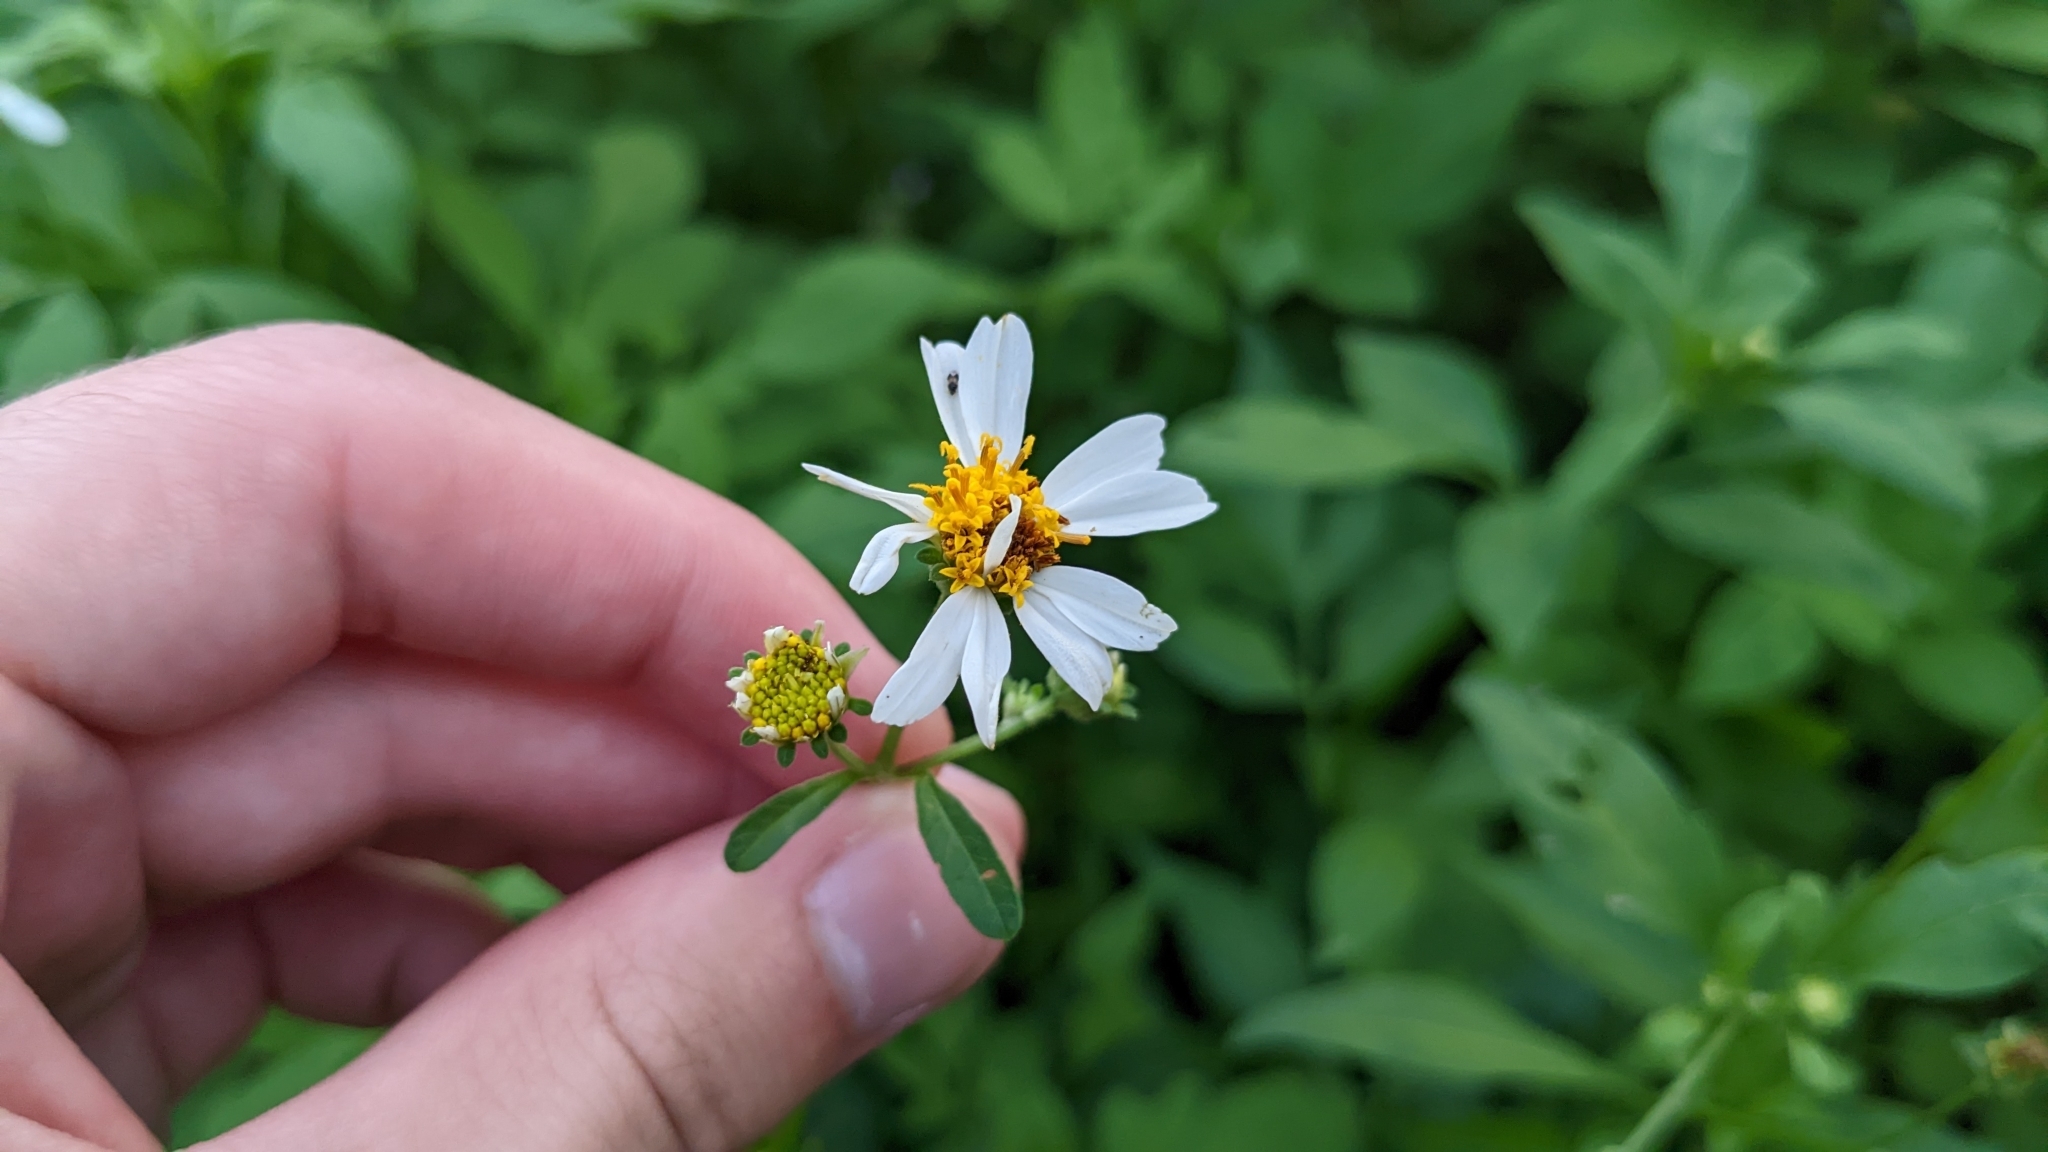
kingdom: Plantae
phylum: Tracheophyta
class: Magnoliopsida
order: Asterales
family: Asteraceae
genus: Bidens
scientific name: Bidens alba
